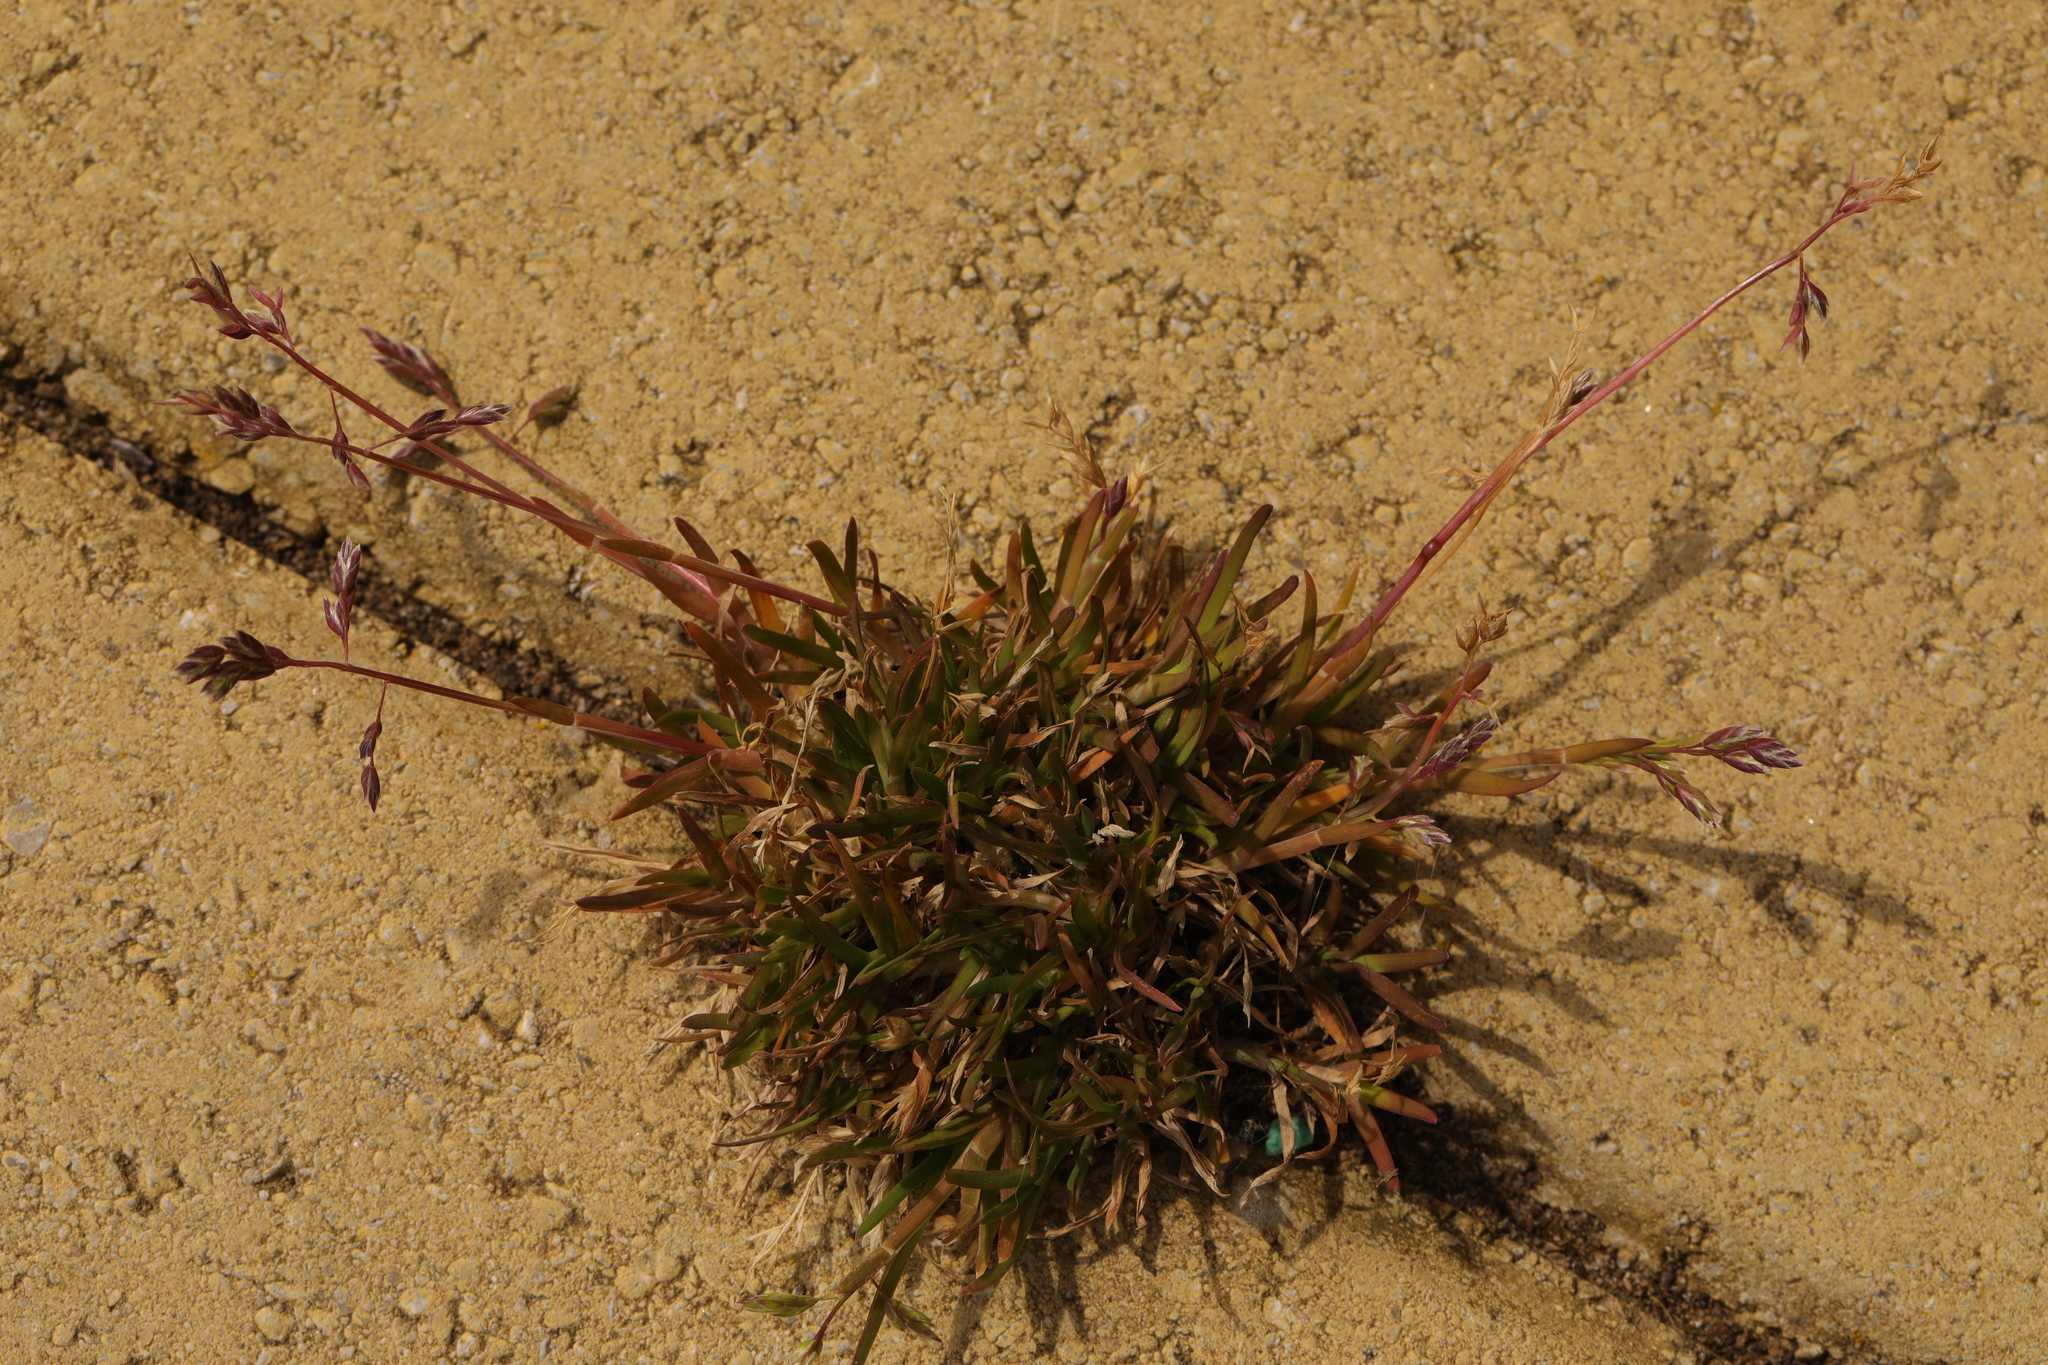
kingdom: Plantae
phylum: Tracheophyta
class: Liliopsida
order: Poales
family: Poaceae
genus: Poa
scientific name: Poa annua
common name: Annual bluegrass
